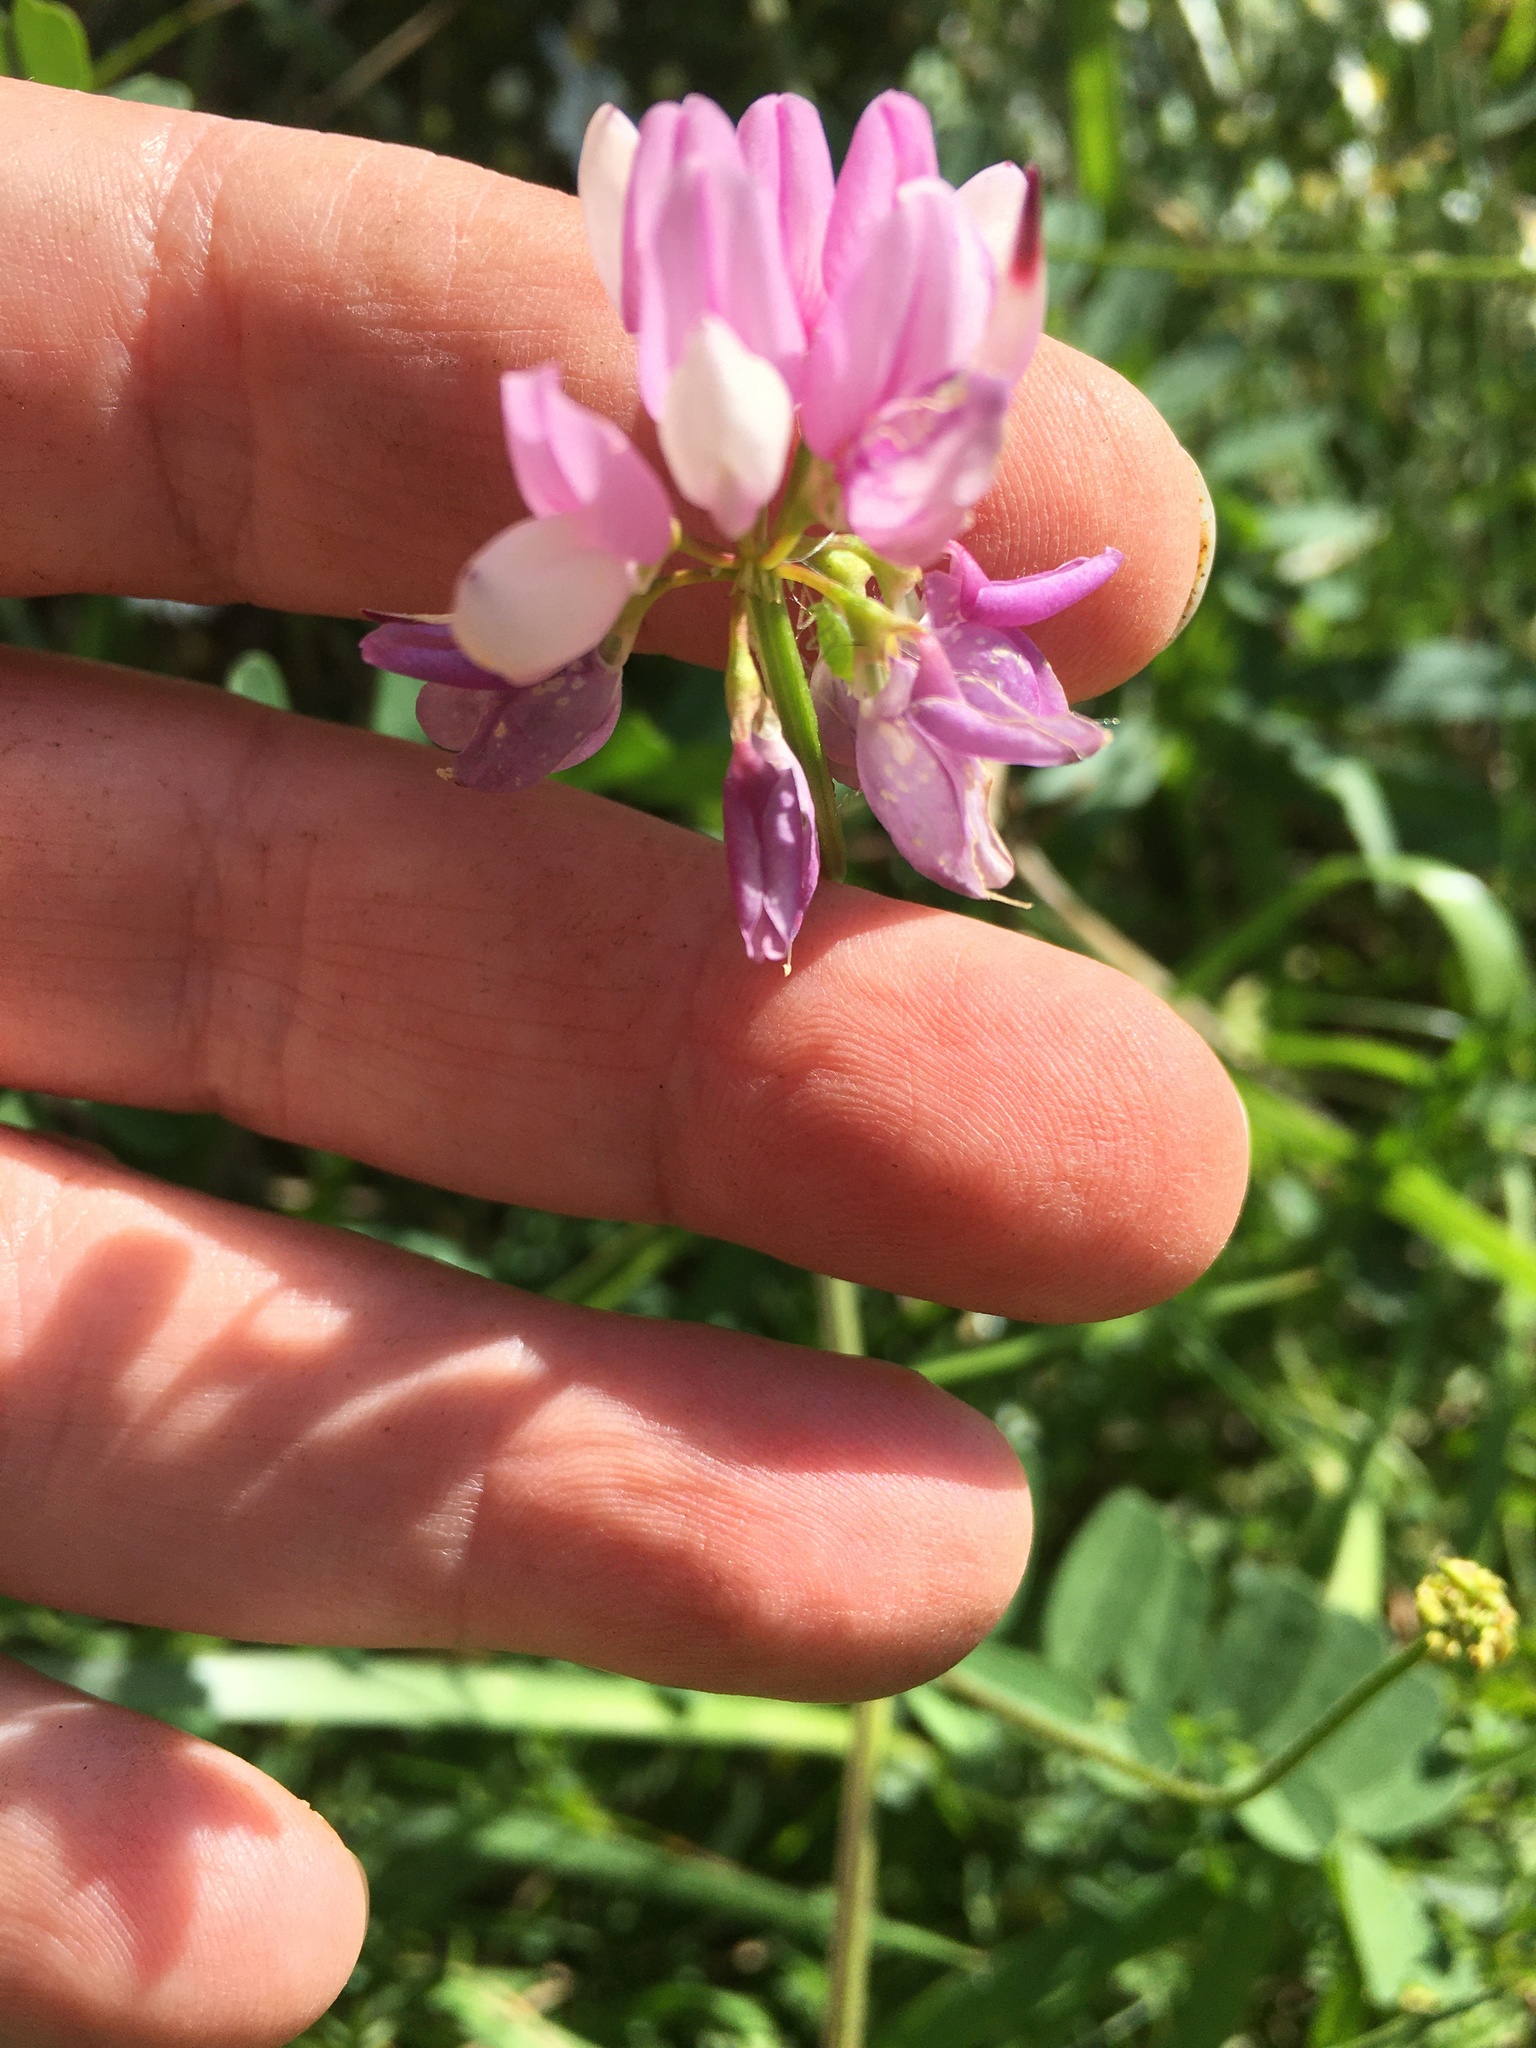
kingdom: Plantae
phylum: Tracheophyta
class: Magnoliopsida
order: Fabales
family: Fabaceae
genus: Coronilla
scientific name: Coronilla varia
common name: Crownvetch
